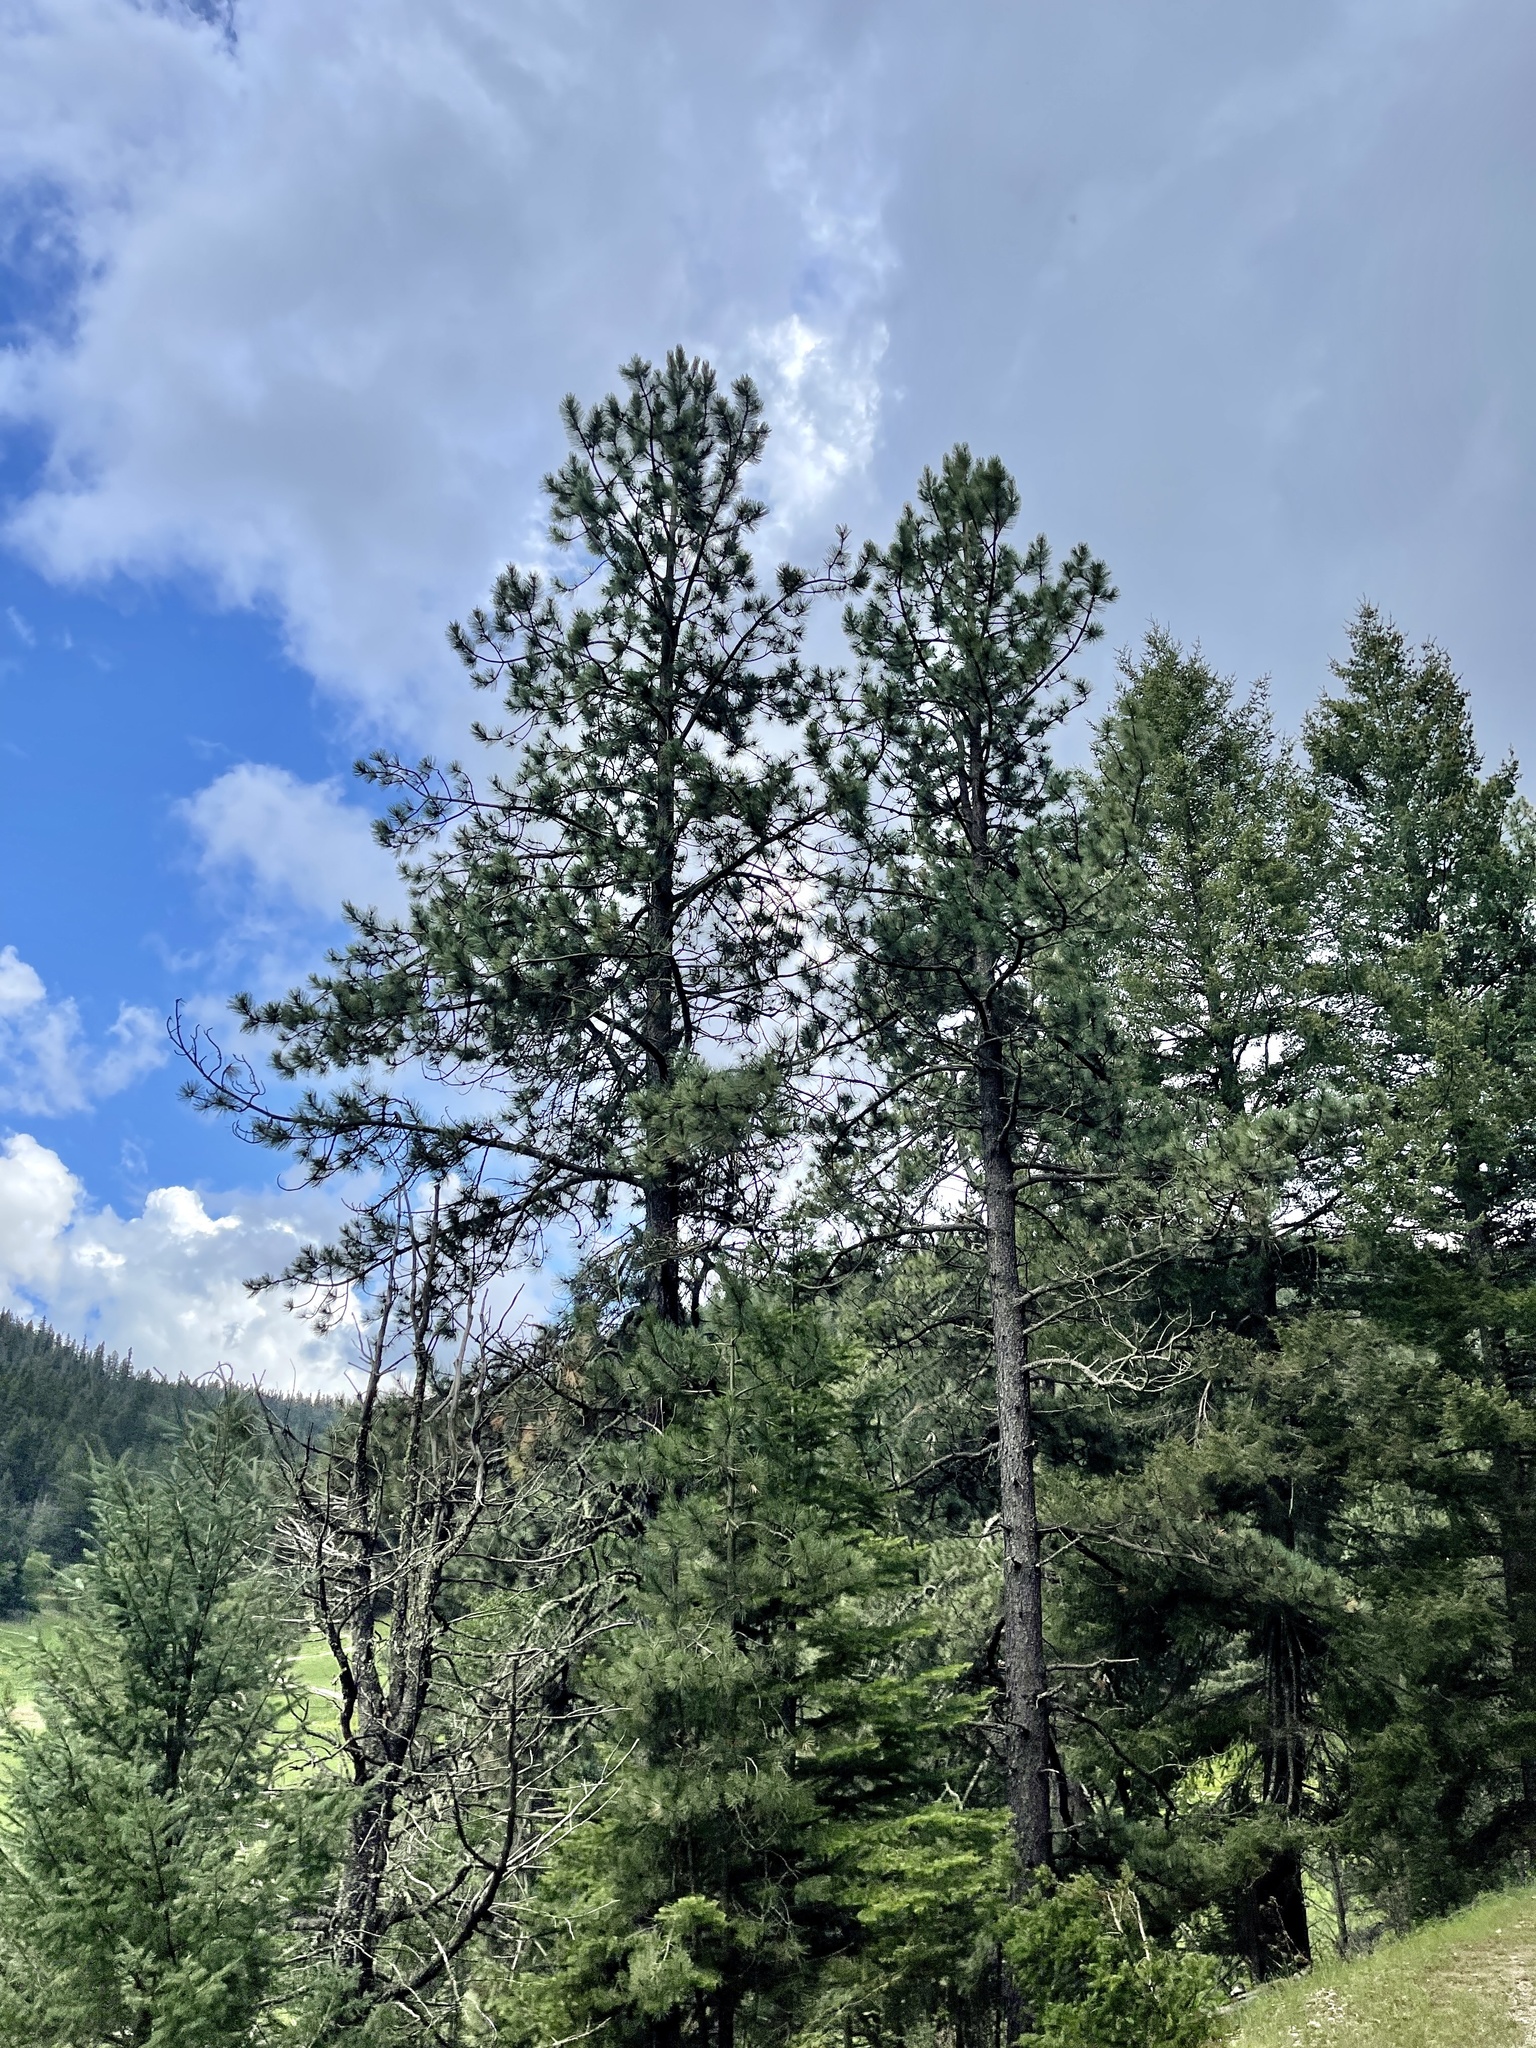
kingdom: Plantae
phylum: Tracheophyta
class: Pinopsida
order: Pinales
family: Pinaceae
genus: Pinus
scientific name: Pinus ponderosa
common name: Western yellow-pine
